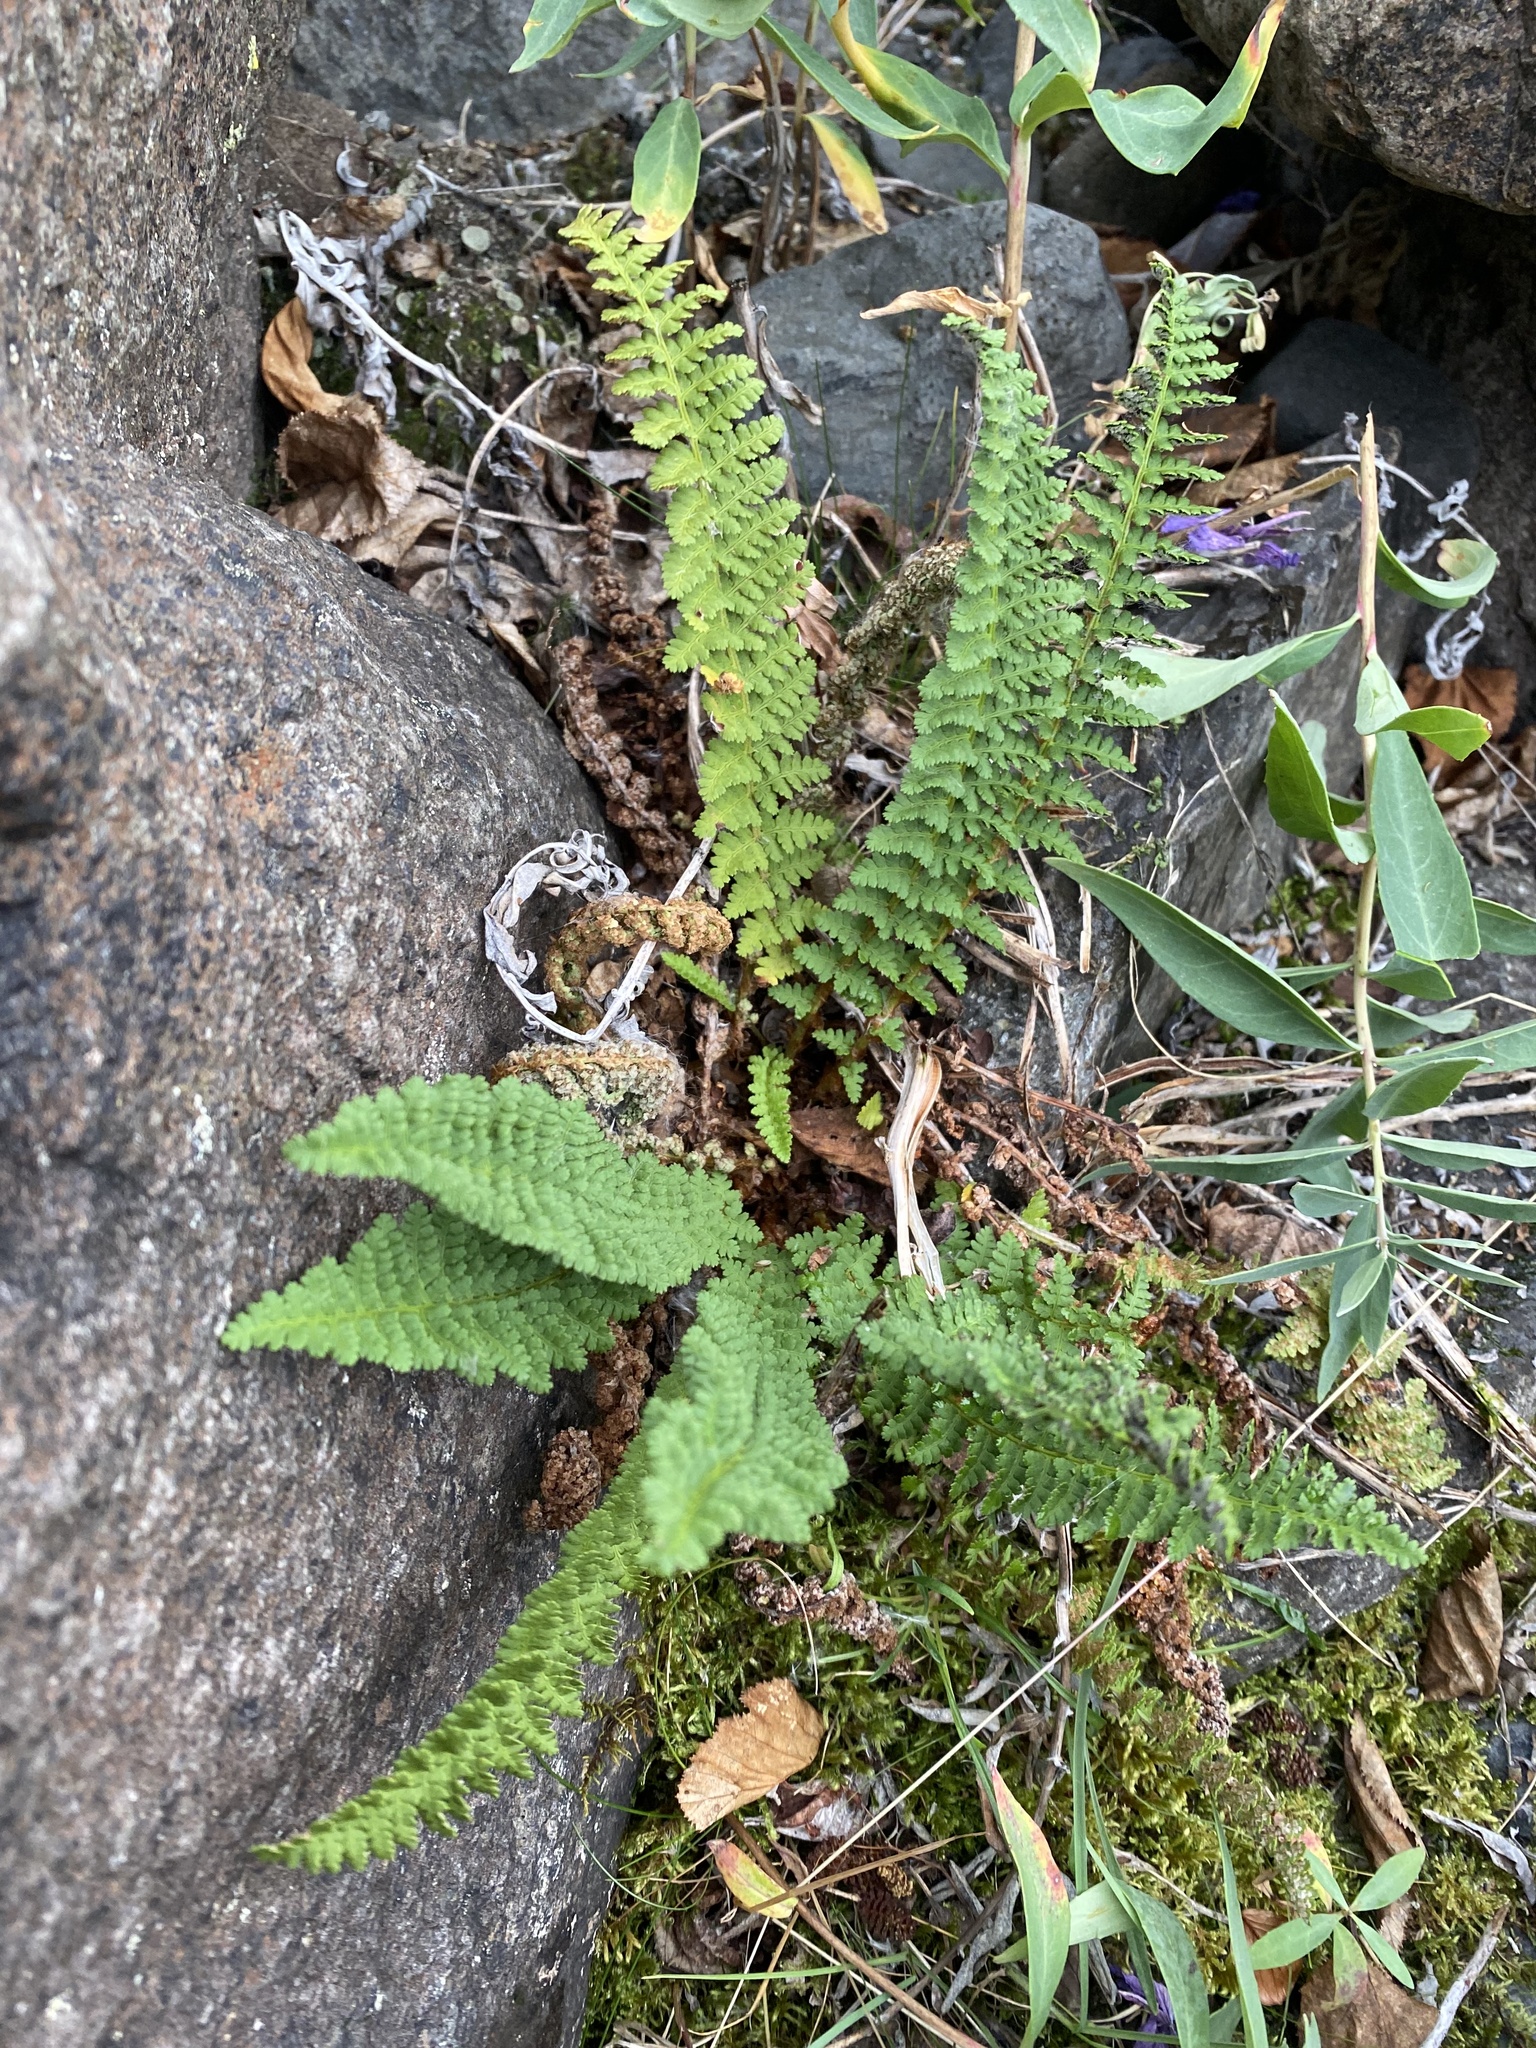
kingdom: Plantae
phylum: Tracheophyta
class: Polypodiopsida
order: Polypodiales
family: Dryopteridaceae
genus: Dryopteris
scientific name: Dryopteris fragrans
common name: Fragrant wood fern
